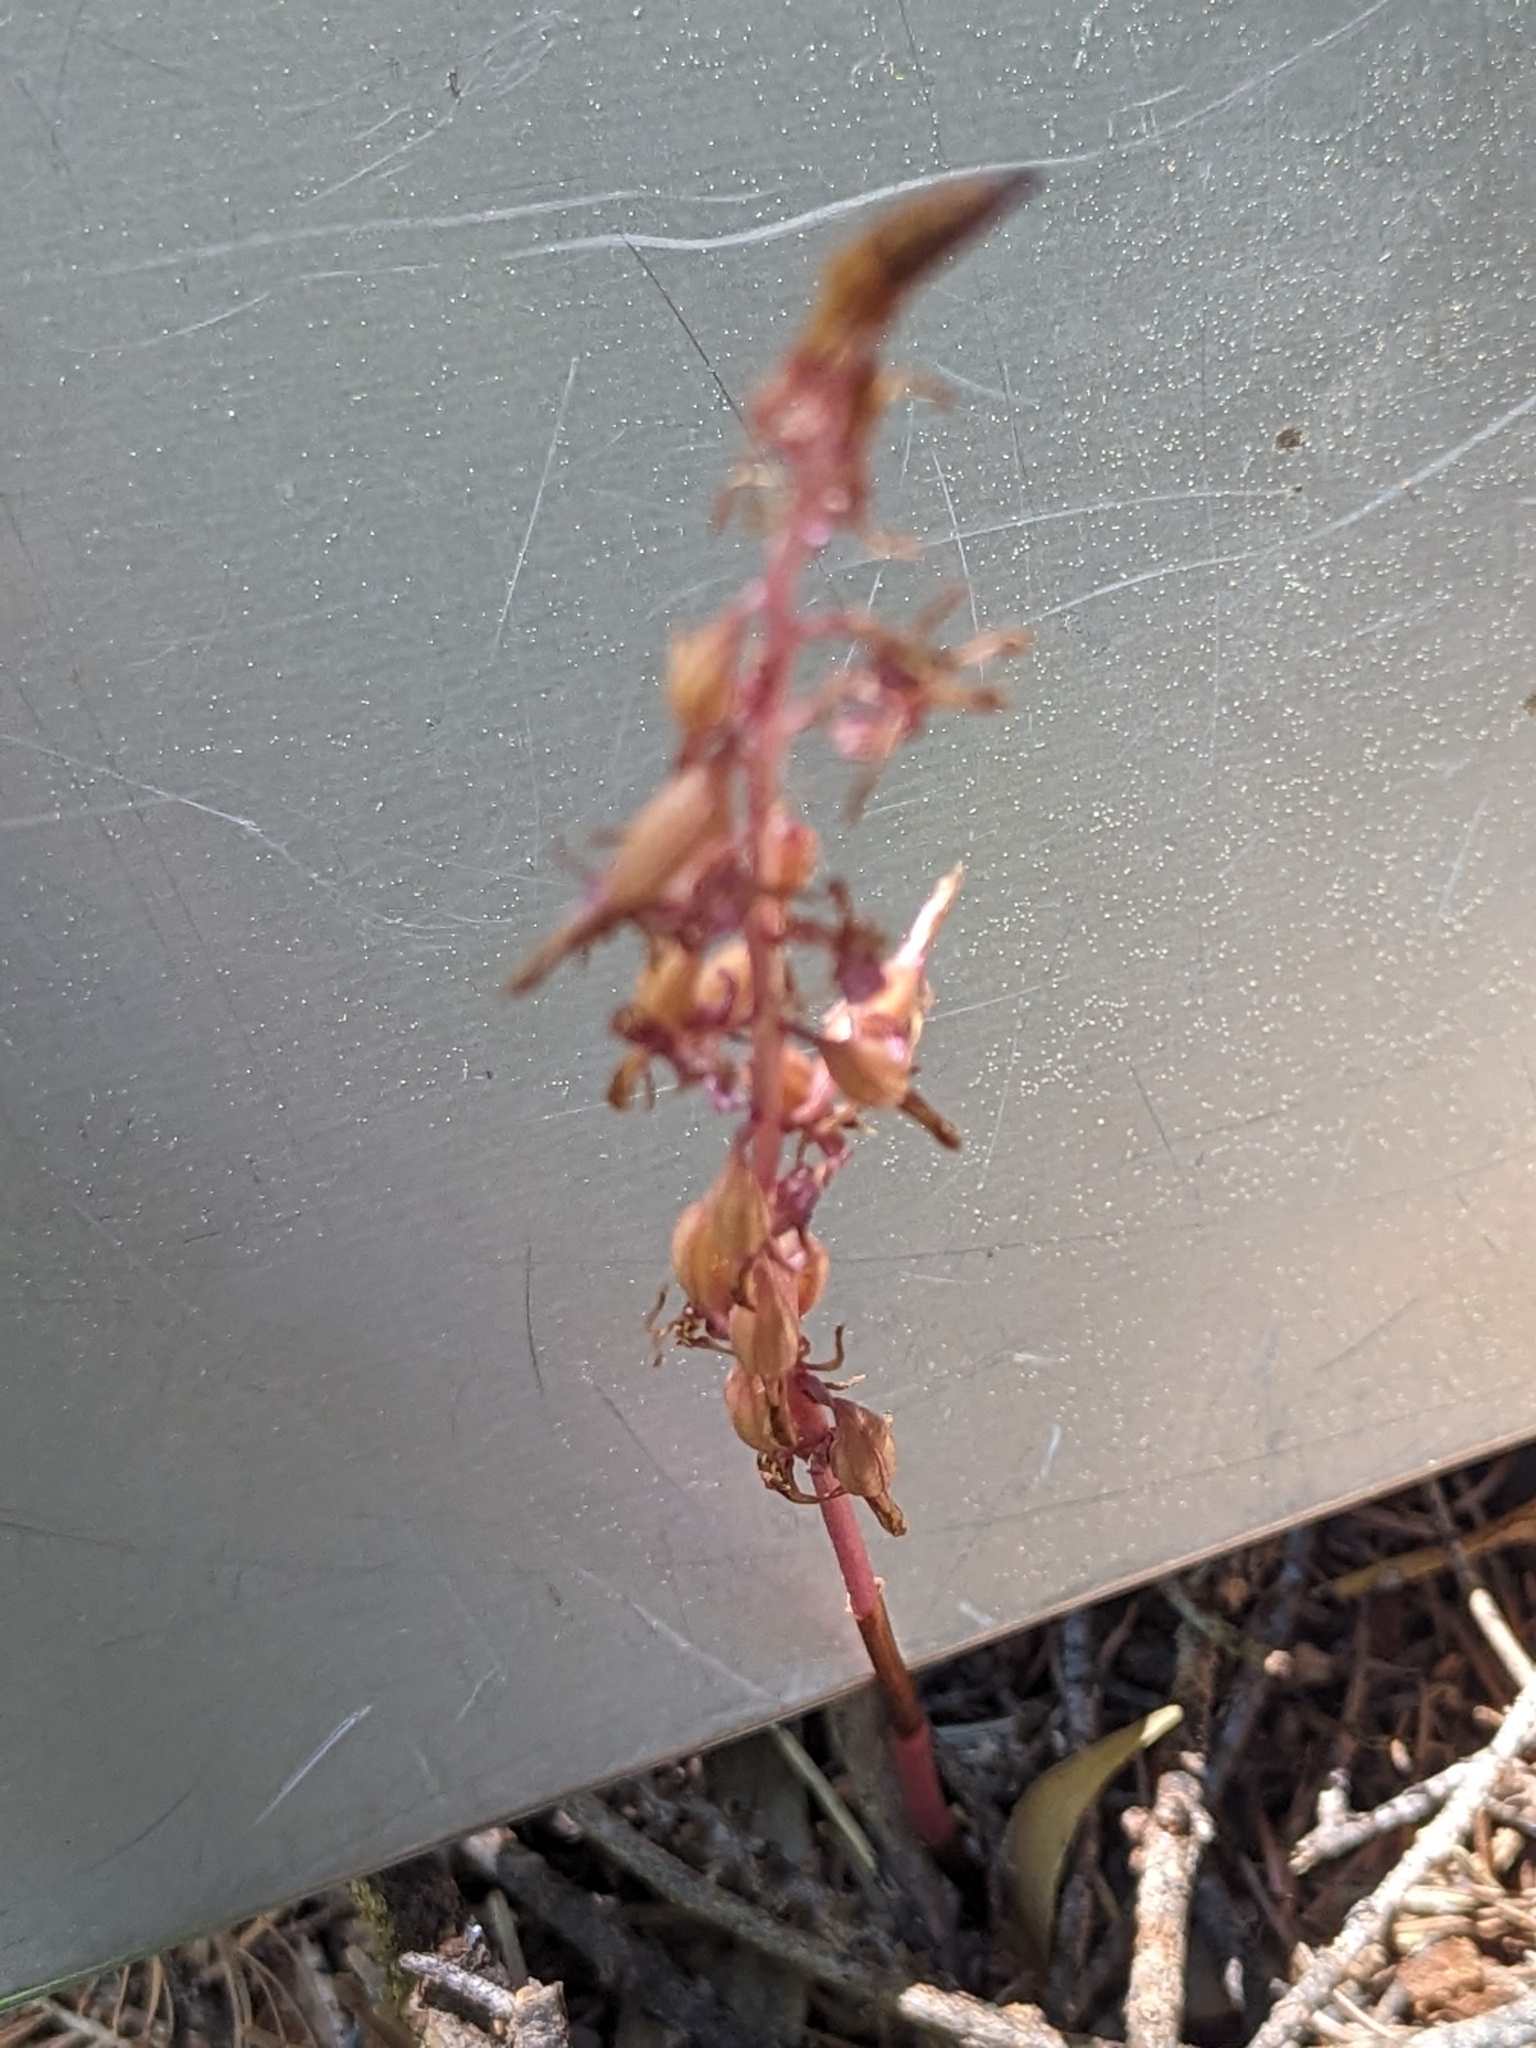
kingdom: Plantae
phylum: Tracheophyta
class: Liliopsida
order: Asparagales
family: Orchidaceae
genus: Corallorhiza
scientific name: Corallorhiza mertensiana
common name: Pacific coralroot
